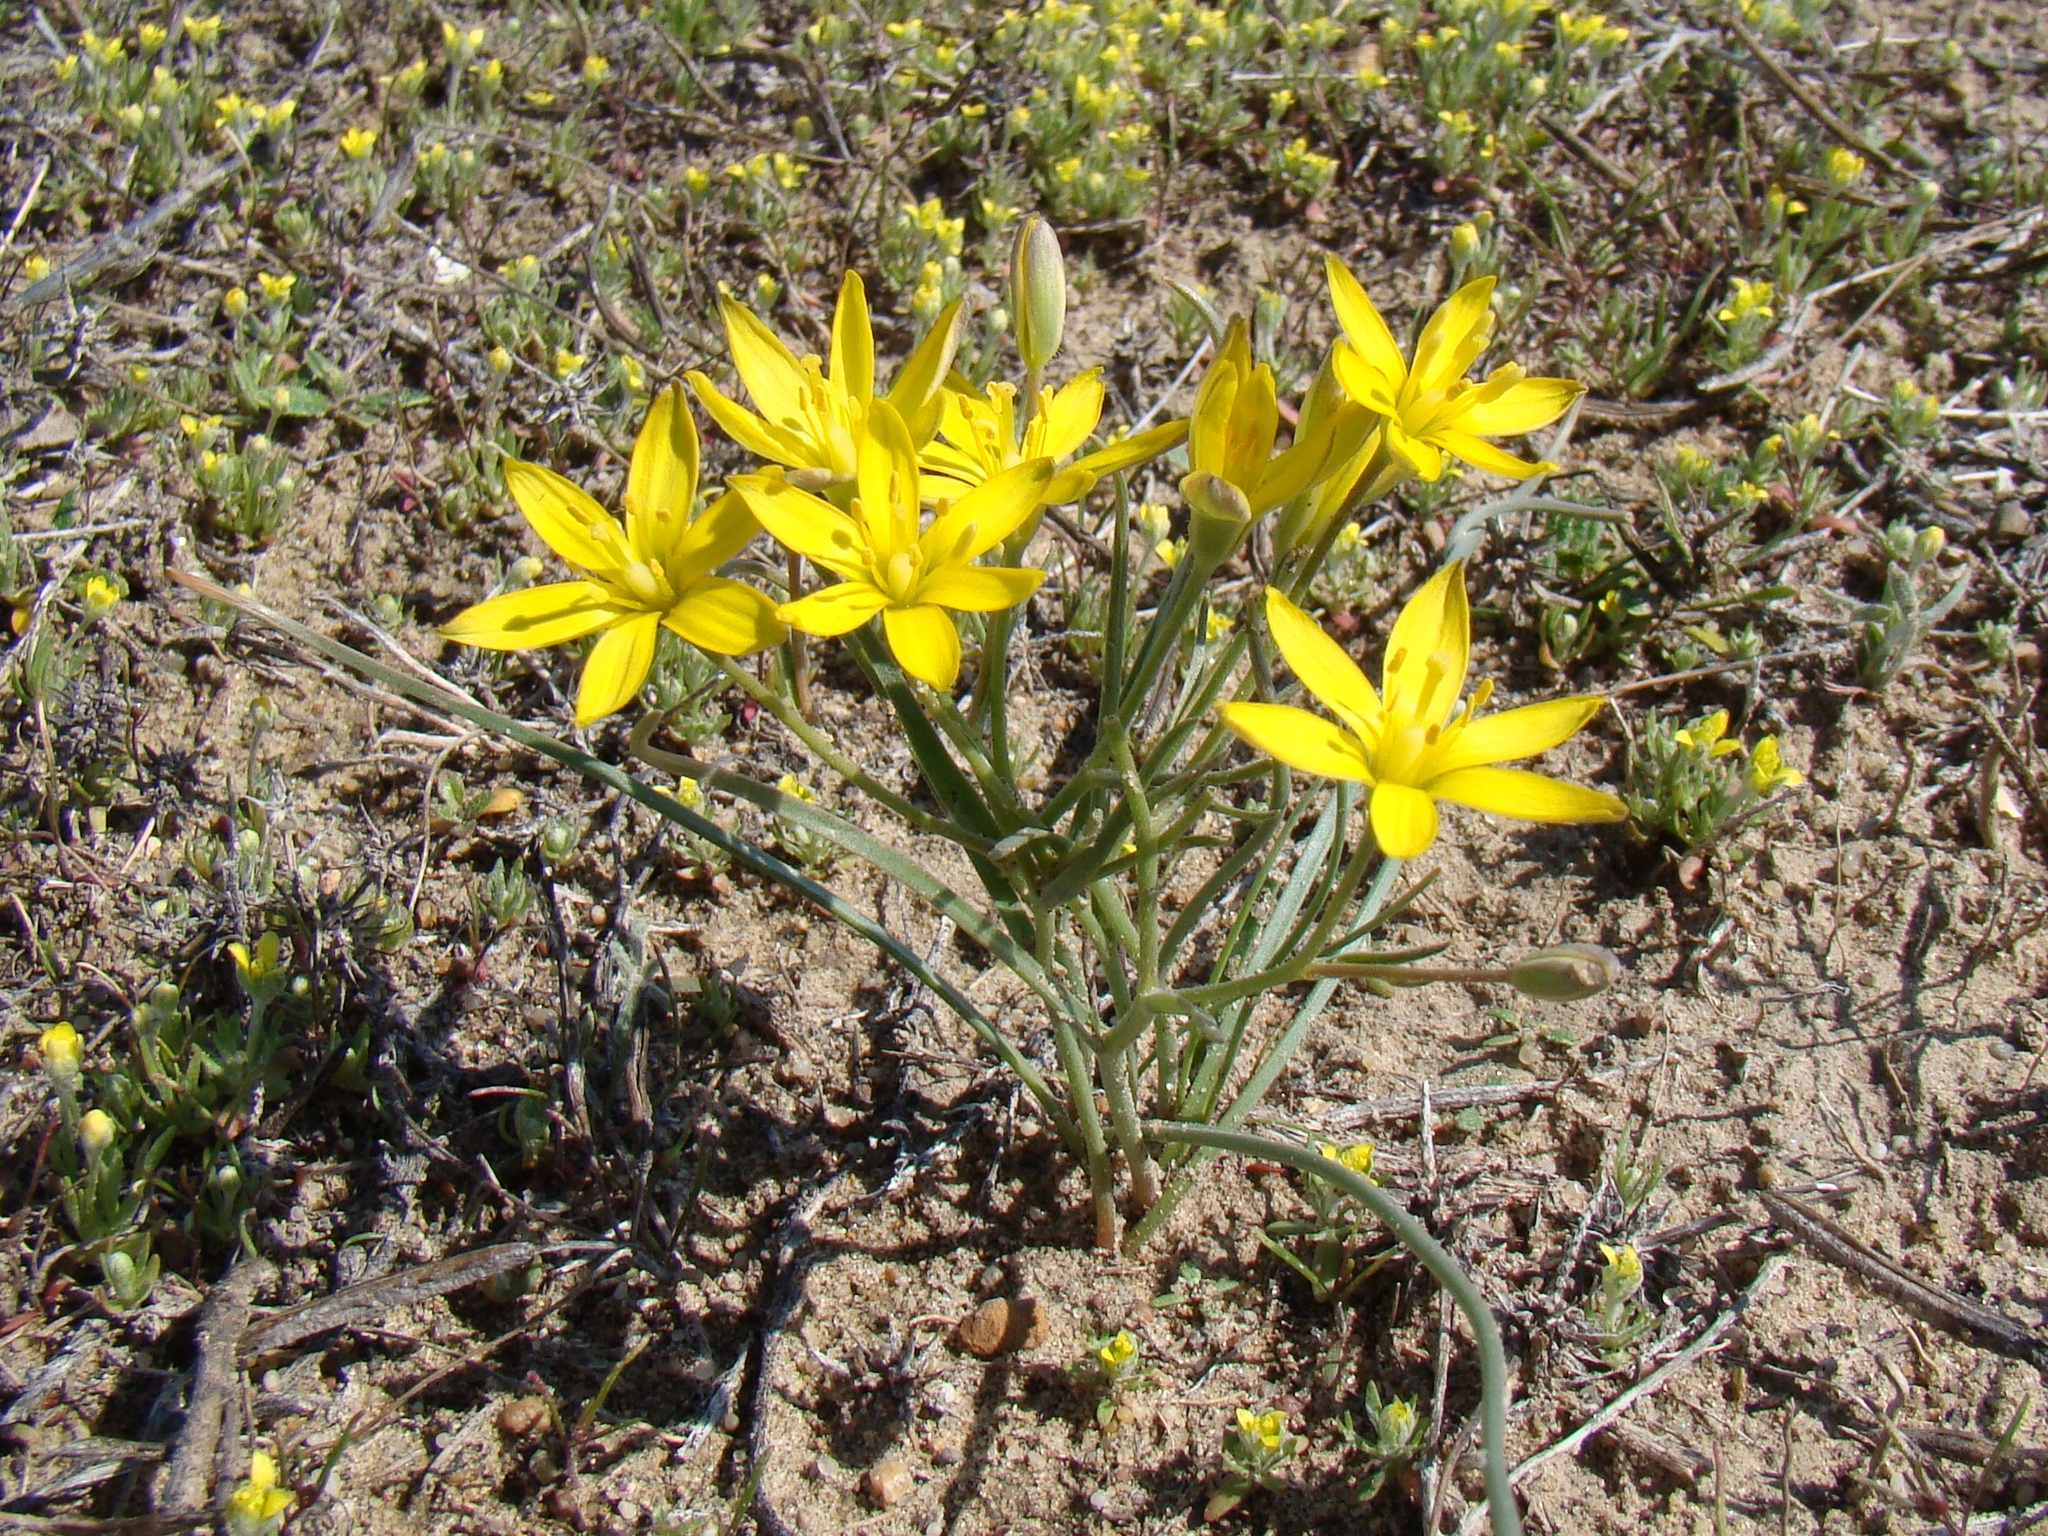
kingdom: Plantae
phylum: Tracheophyta
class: Liliopsida
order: Liliales
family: Liliaceae
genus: Gagea
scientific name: Gagea altaica
